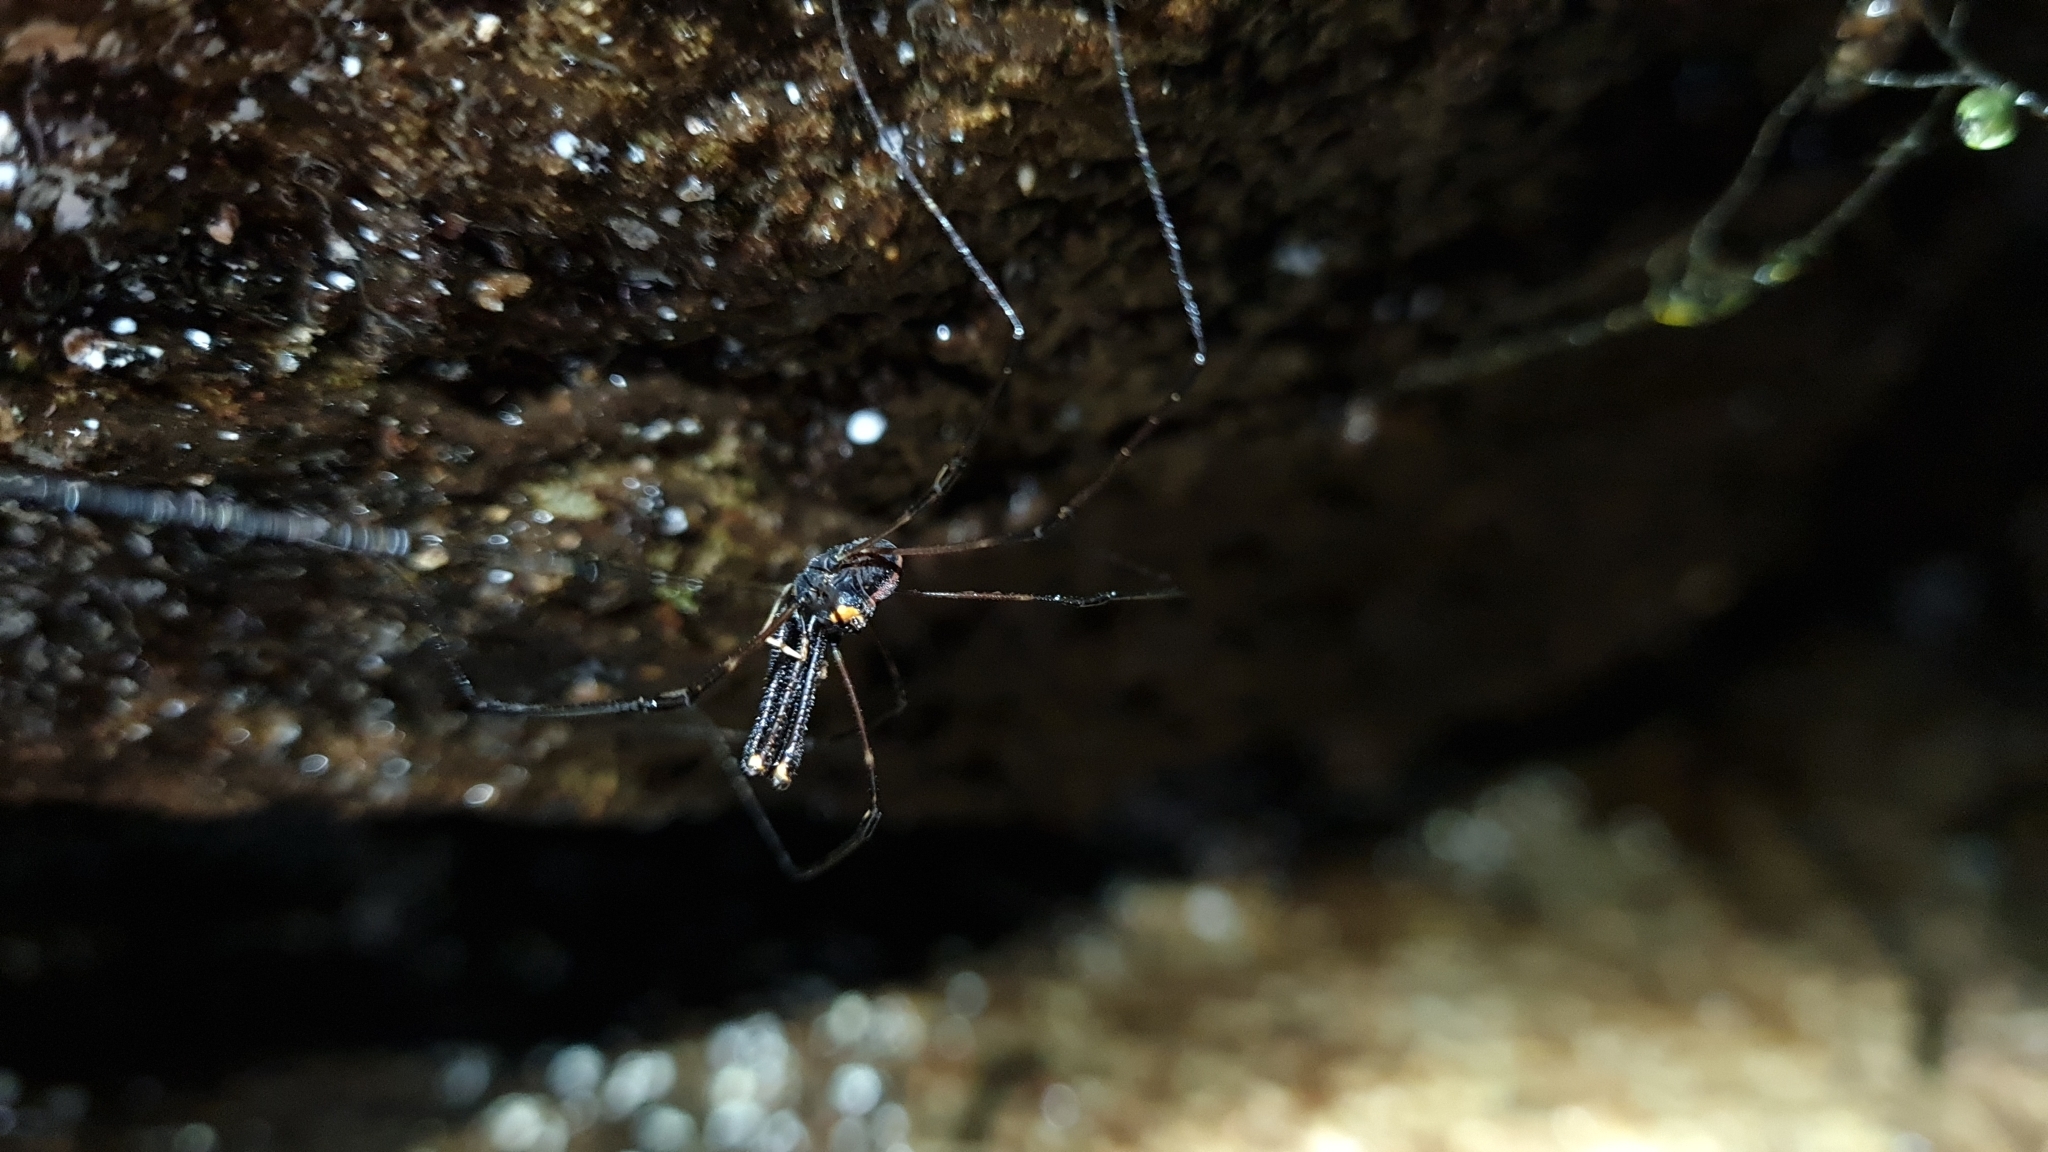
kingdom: Animalia
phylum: Arthropoda
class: Arachnida
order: Opiliones
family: Neopilionidae
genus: Forsteropsalis
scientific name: Forsteropsalis pureora
